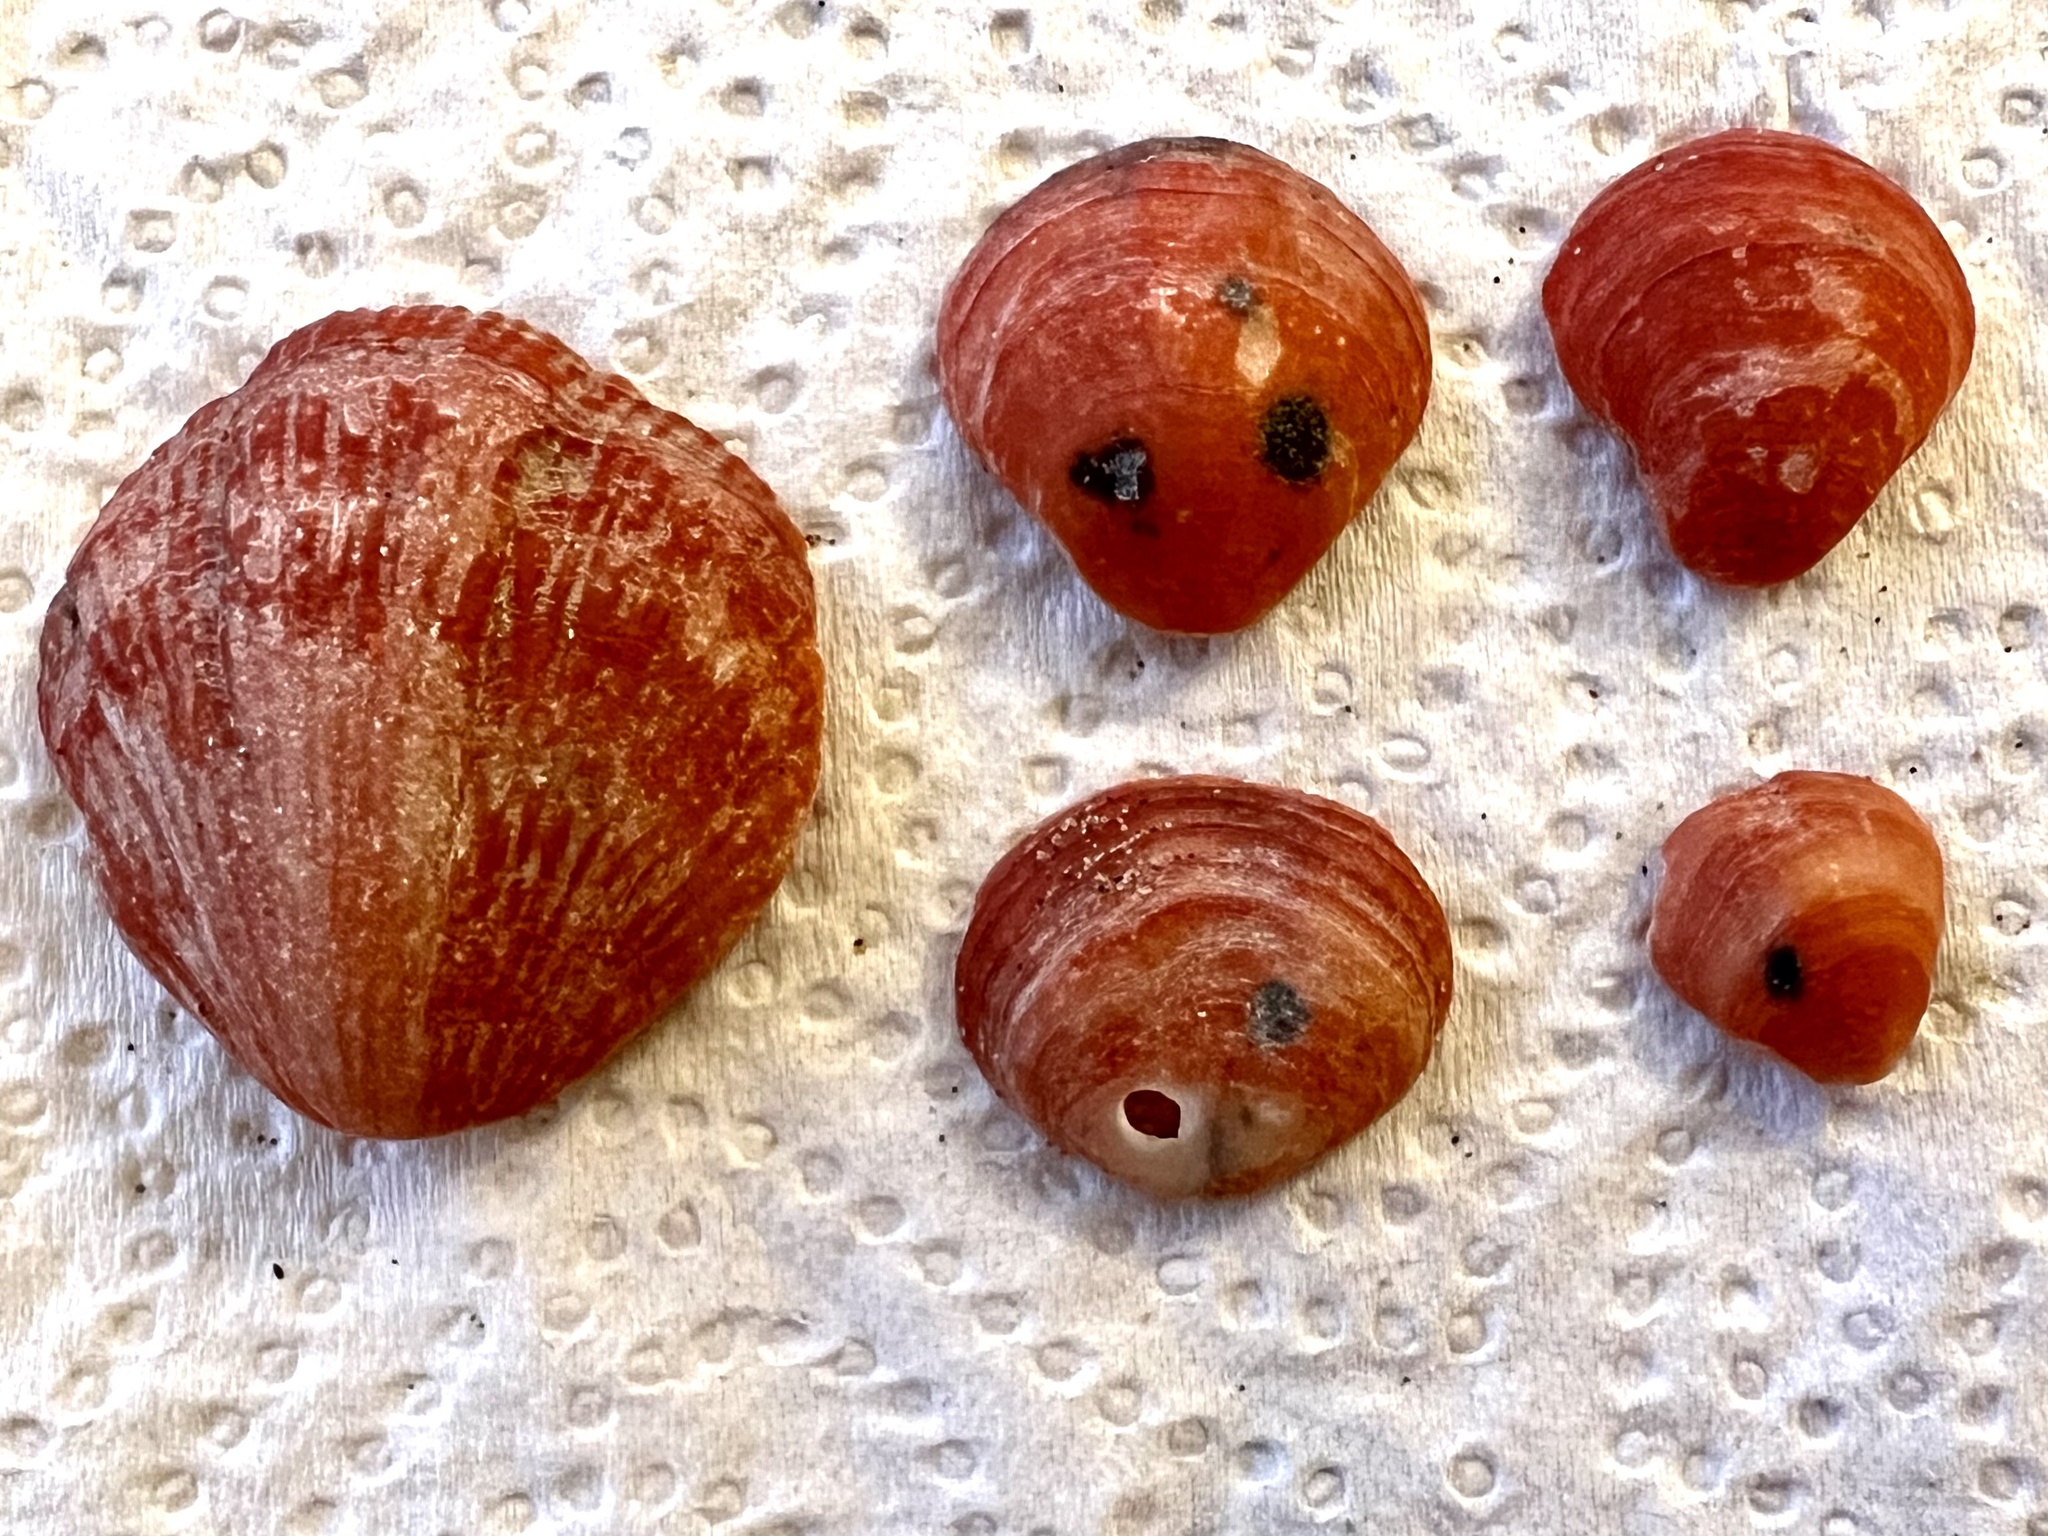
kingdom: Animalia
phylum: Brachiopoda
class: Rhynchonellata
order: Terebratulida
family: Terebratellidae
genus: Calloria
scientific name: Calloria inconspicua
